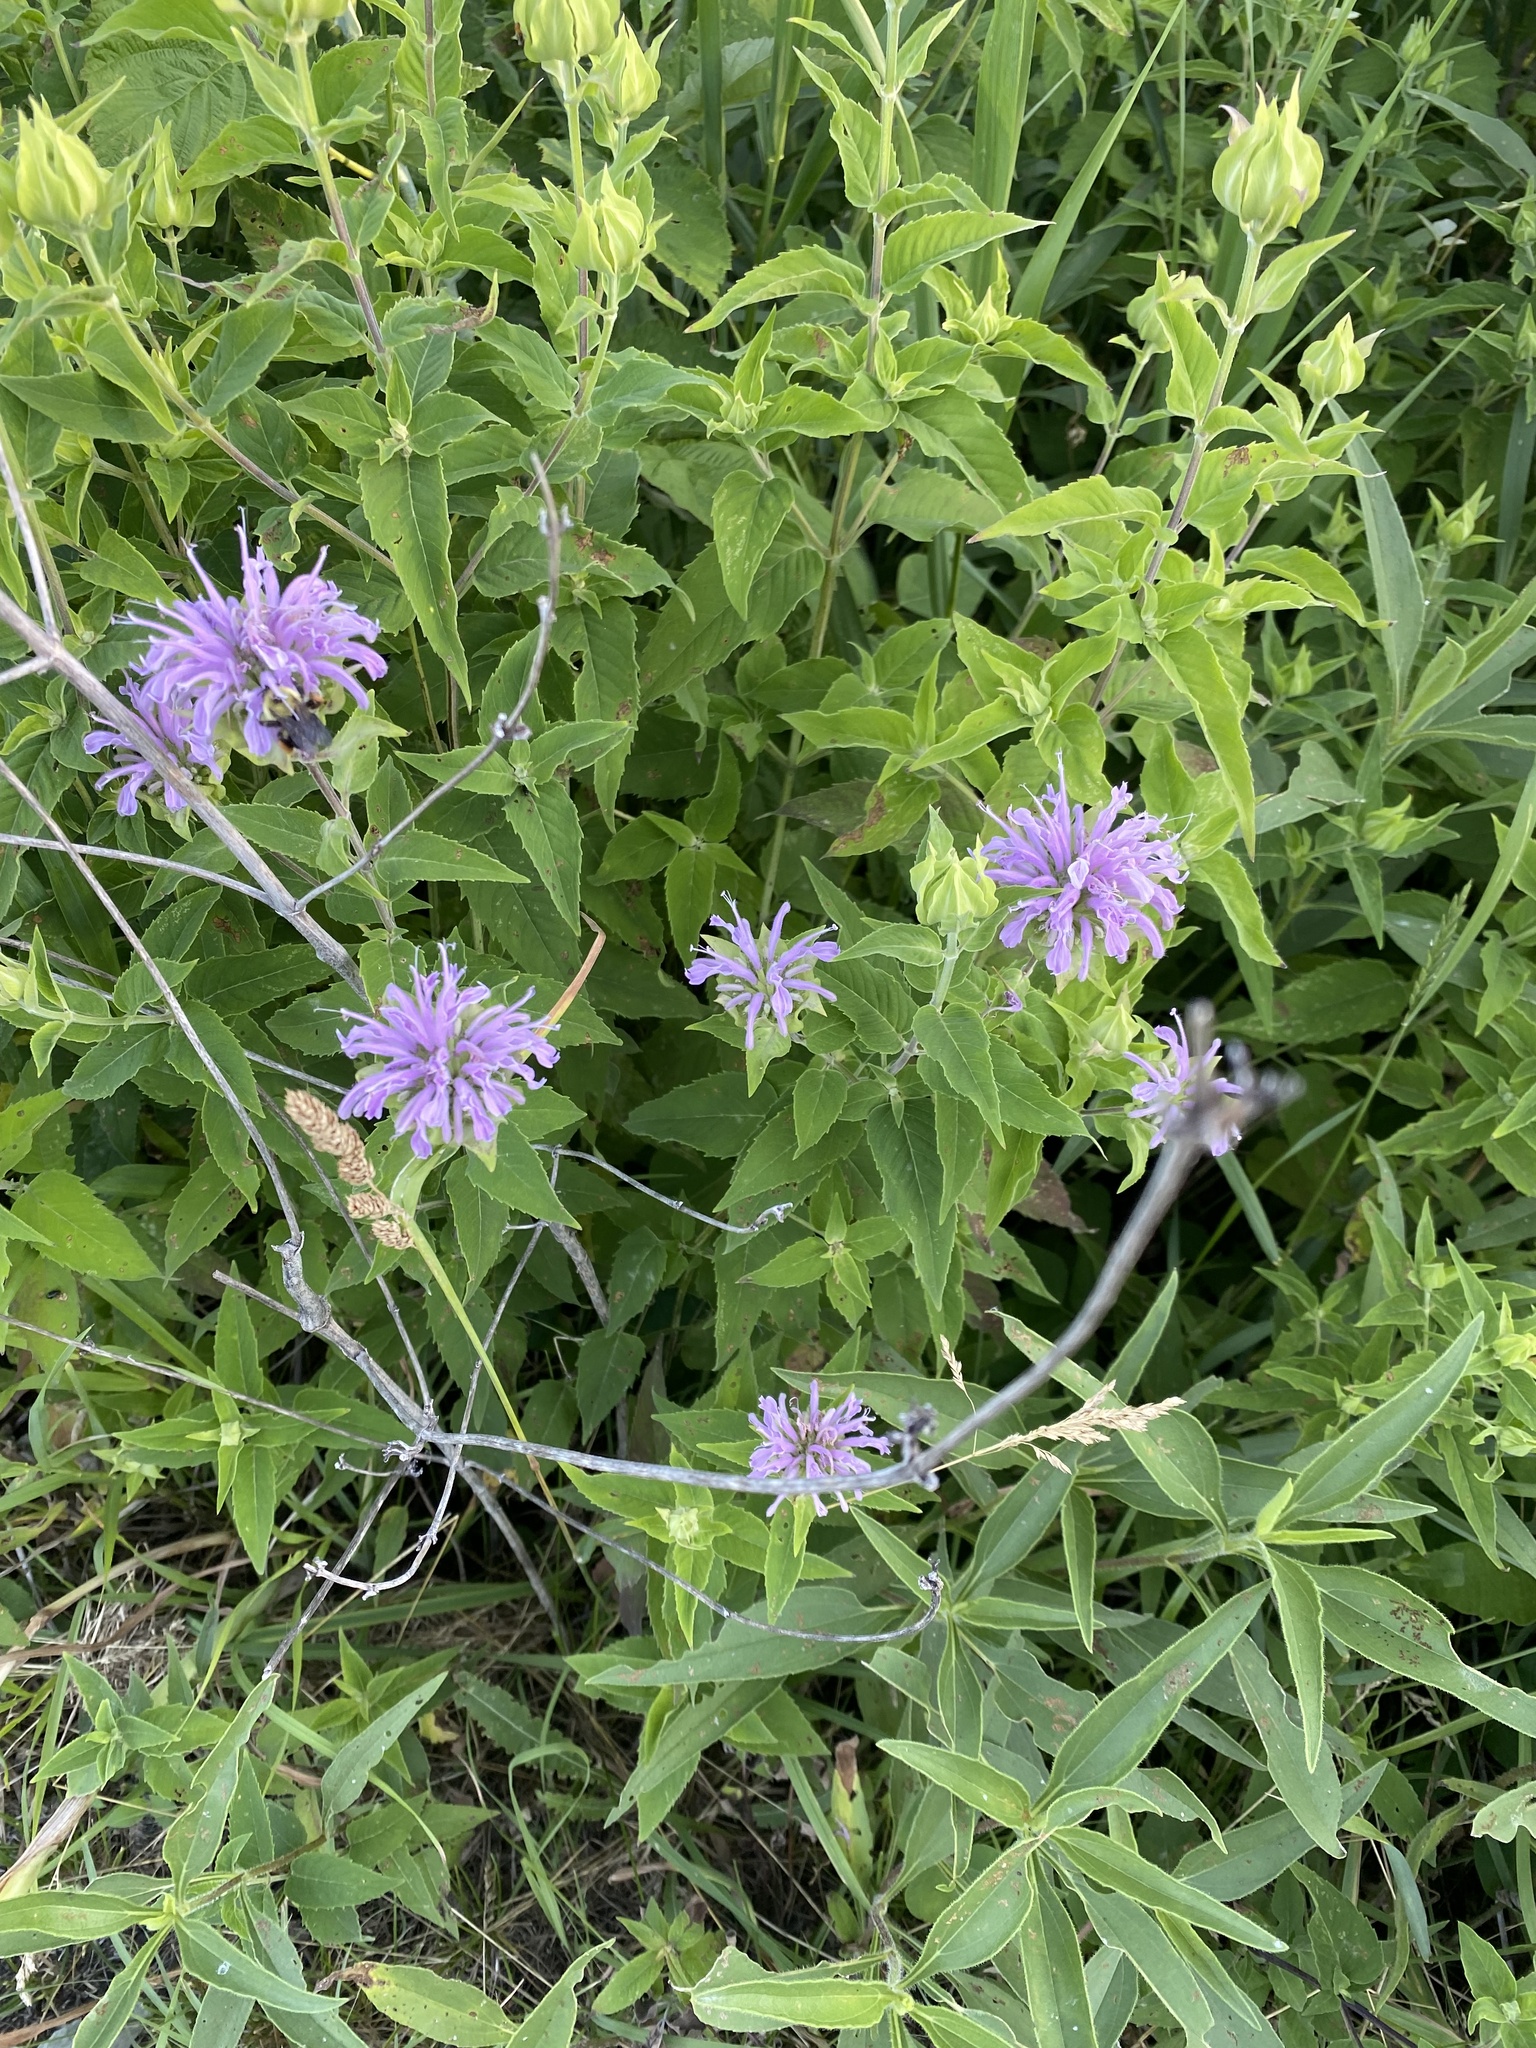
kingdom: Plantae
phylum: Tracheophyta
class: Magnoliopsida
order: Lamiales
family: Lamiaceae
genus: Monarda
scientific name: Monarda fistulosa
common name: Purple beebalm
